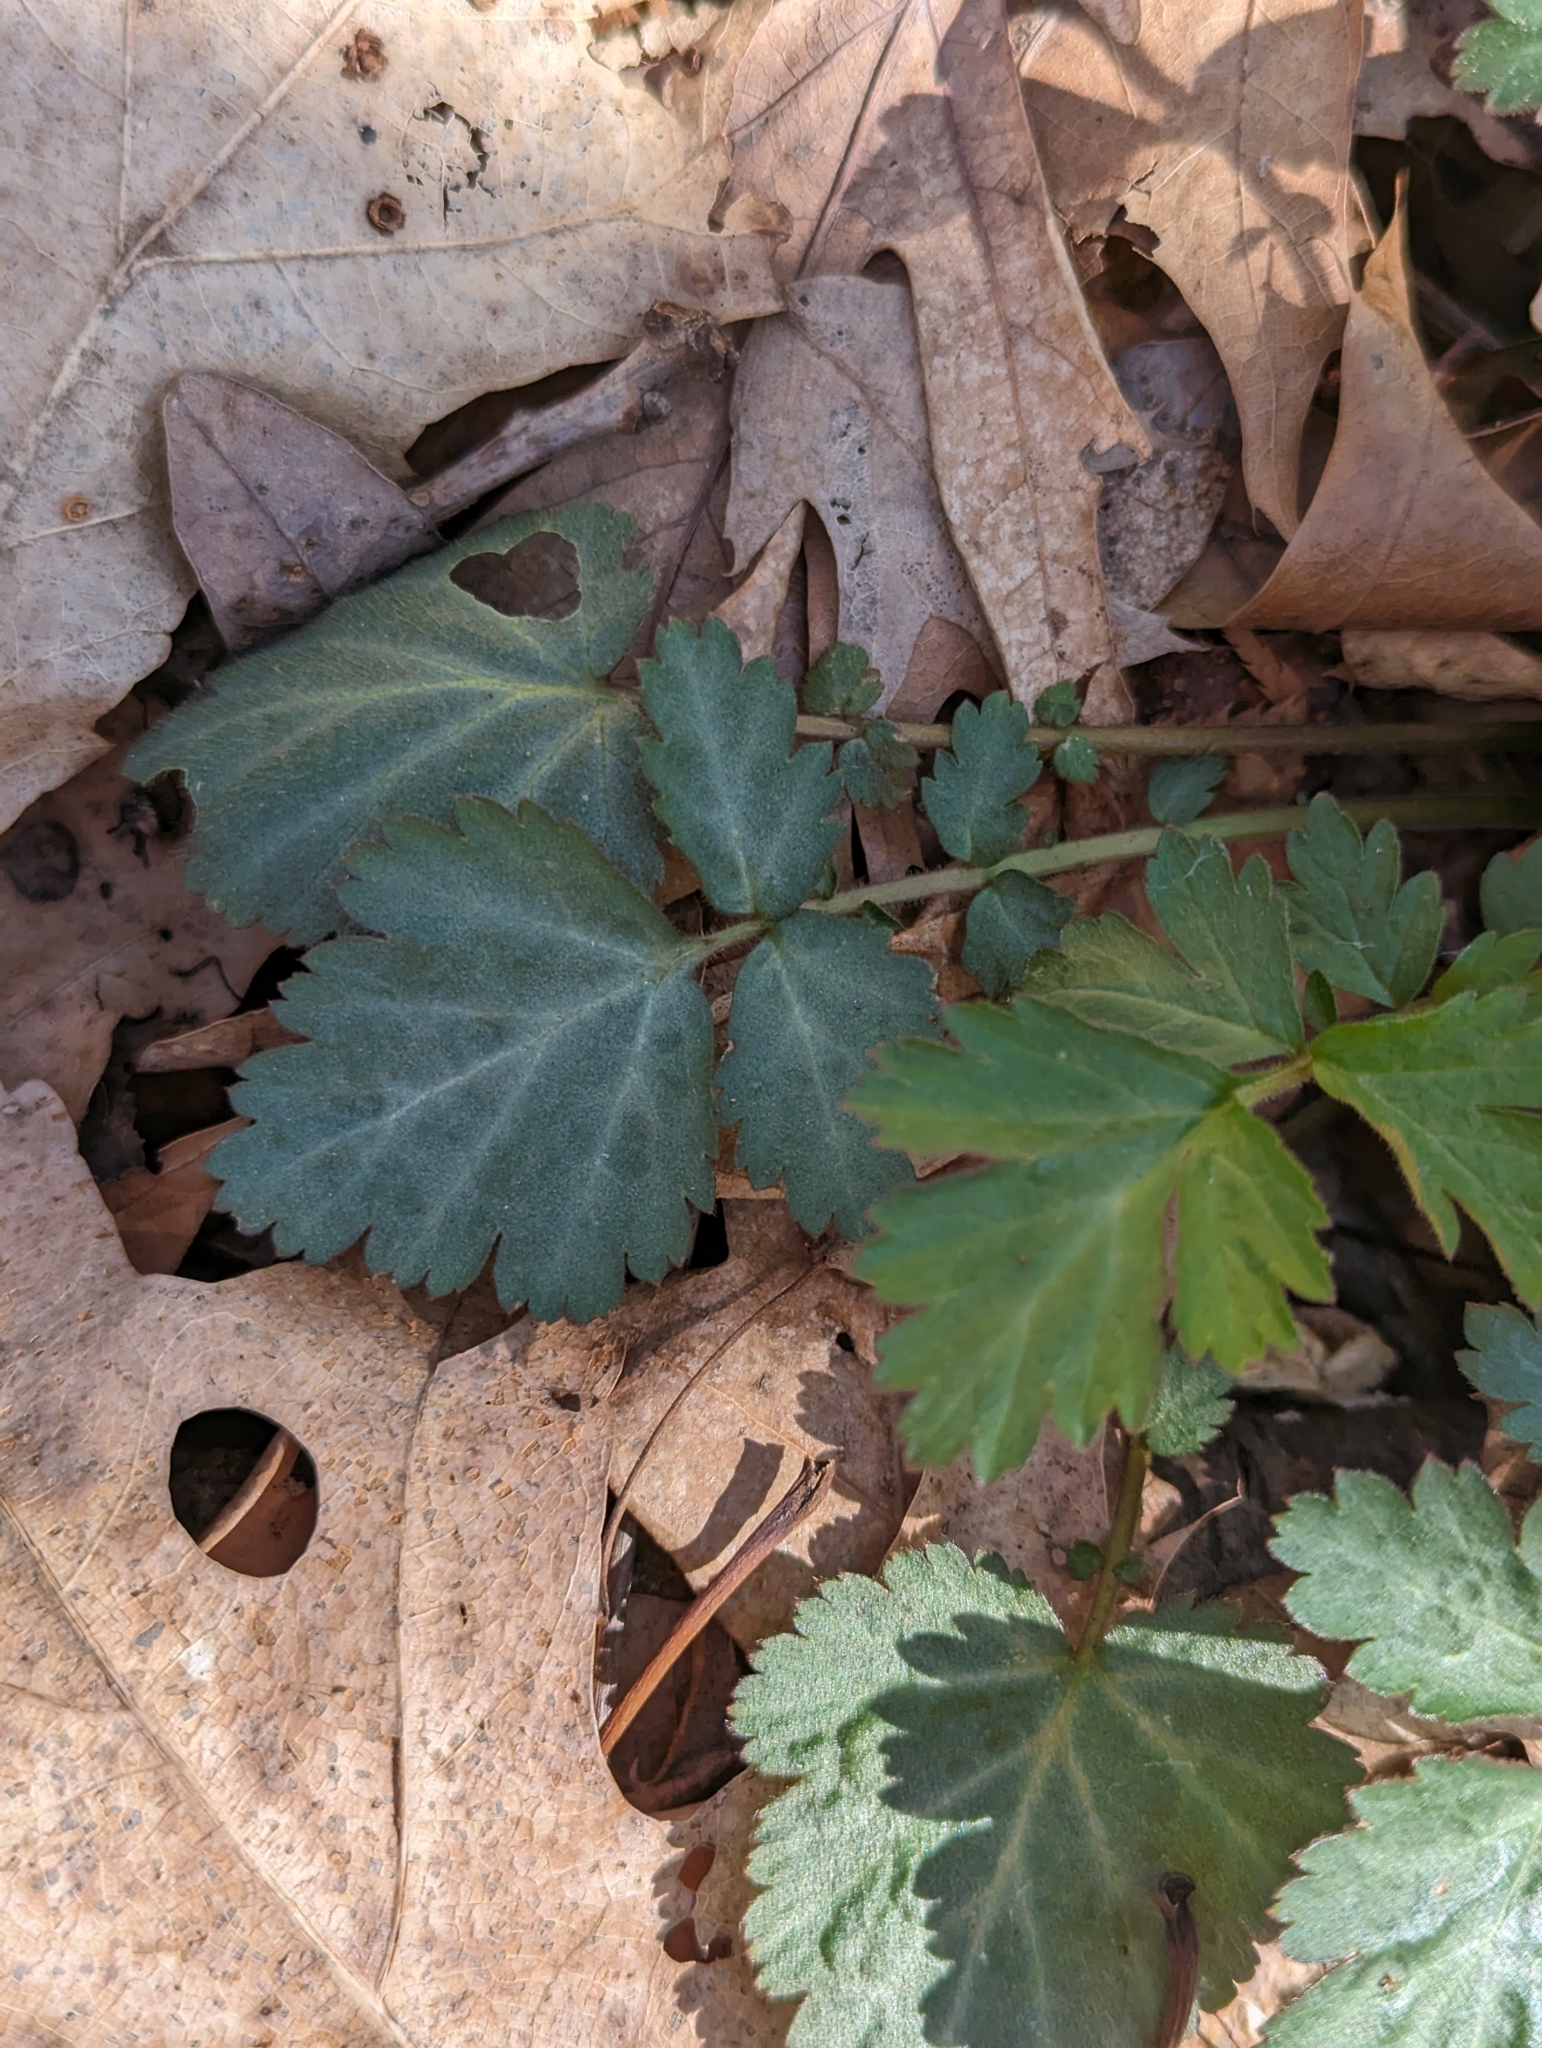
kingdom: Plantae
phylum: Tracheophyta
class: Magnoliopsida
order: Rosales
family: Rosaceae
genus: Geum
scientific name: Geum canadense
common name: White avens
